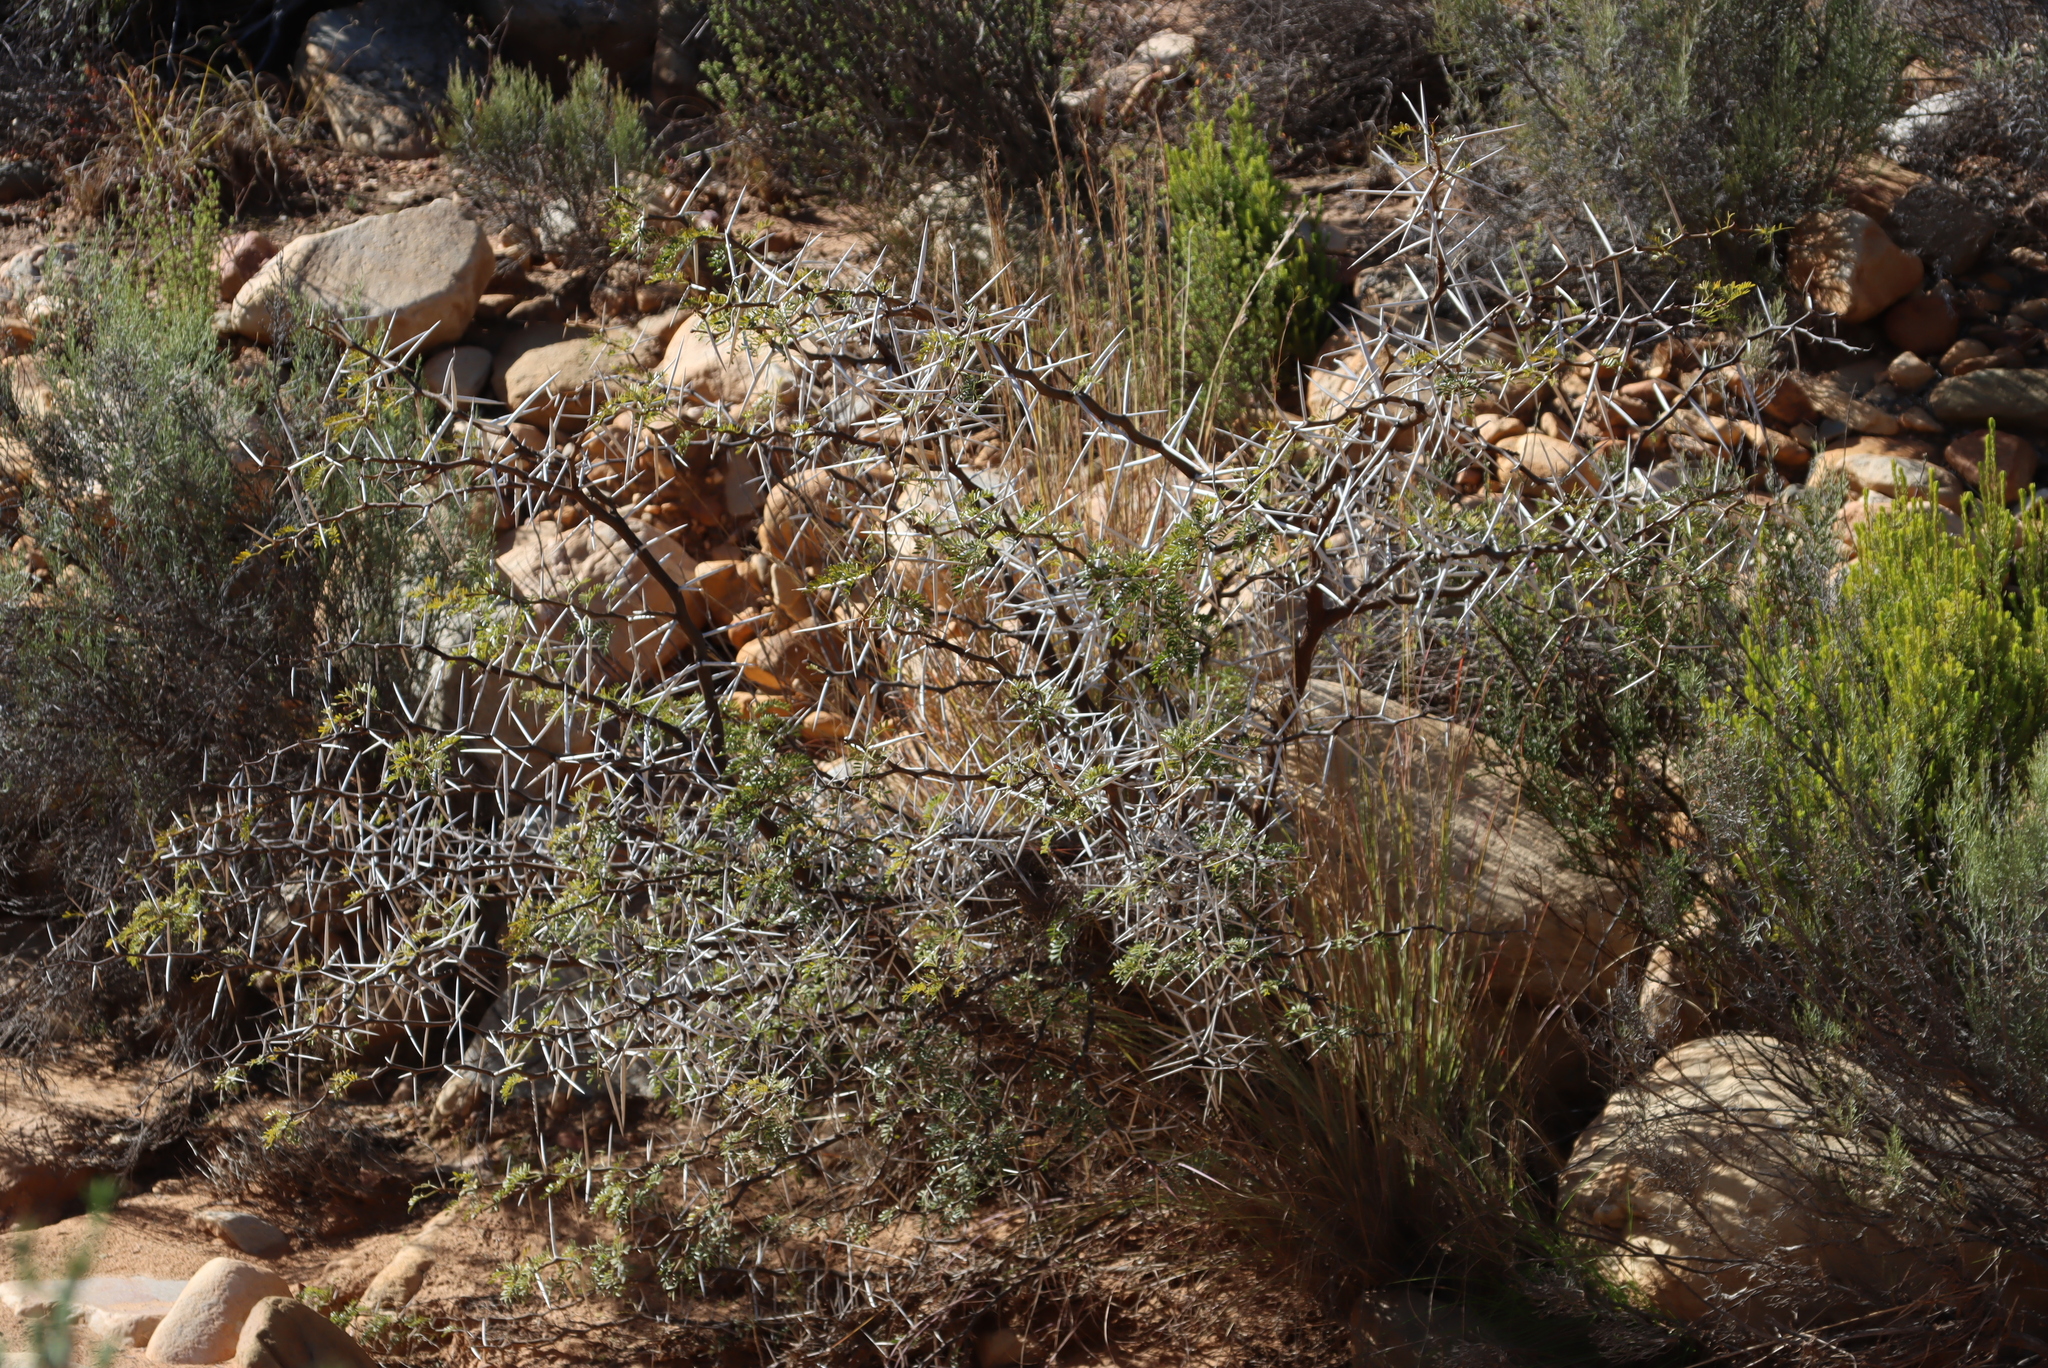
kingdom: Plantae
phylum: Tracheophyta
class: Magnoliopsida
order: Fabales
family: Fabaceae
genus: Vachellia
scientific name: Vachellia karroo
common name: Sweet thorn
